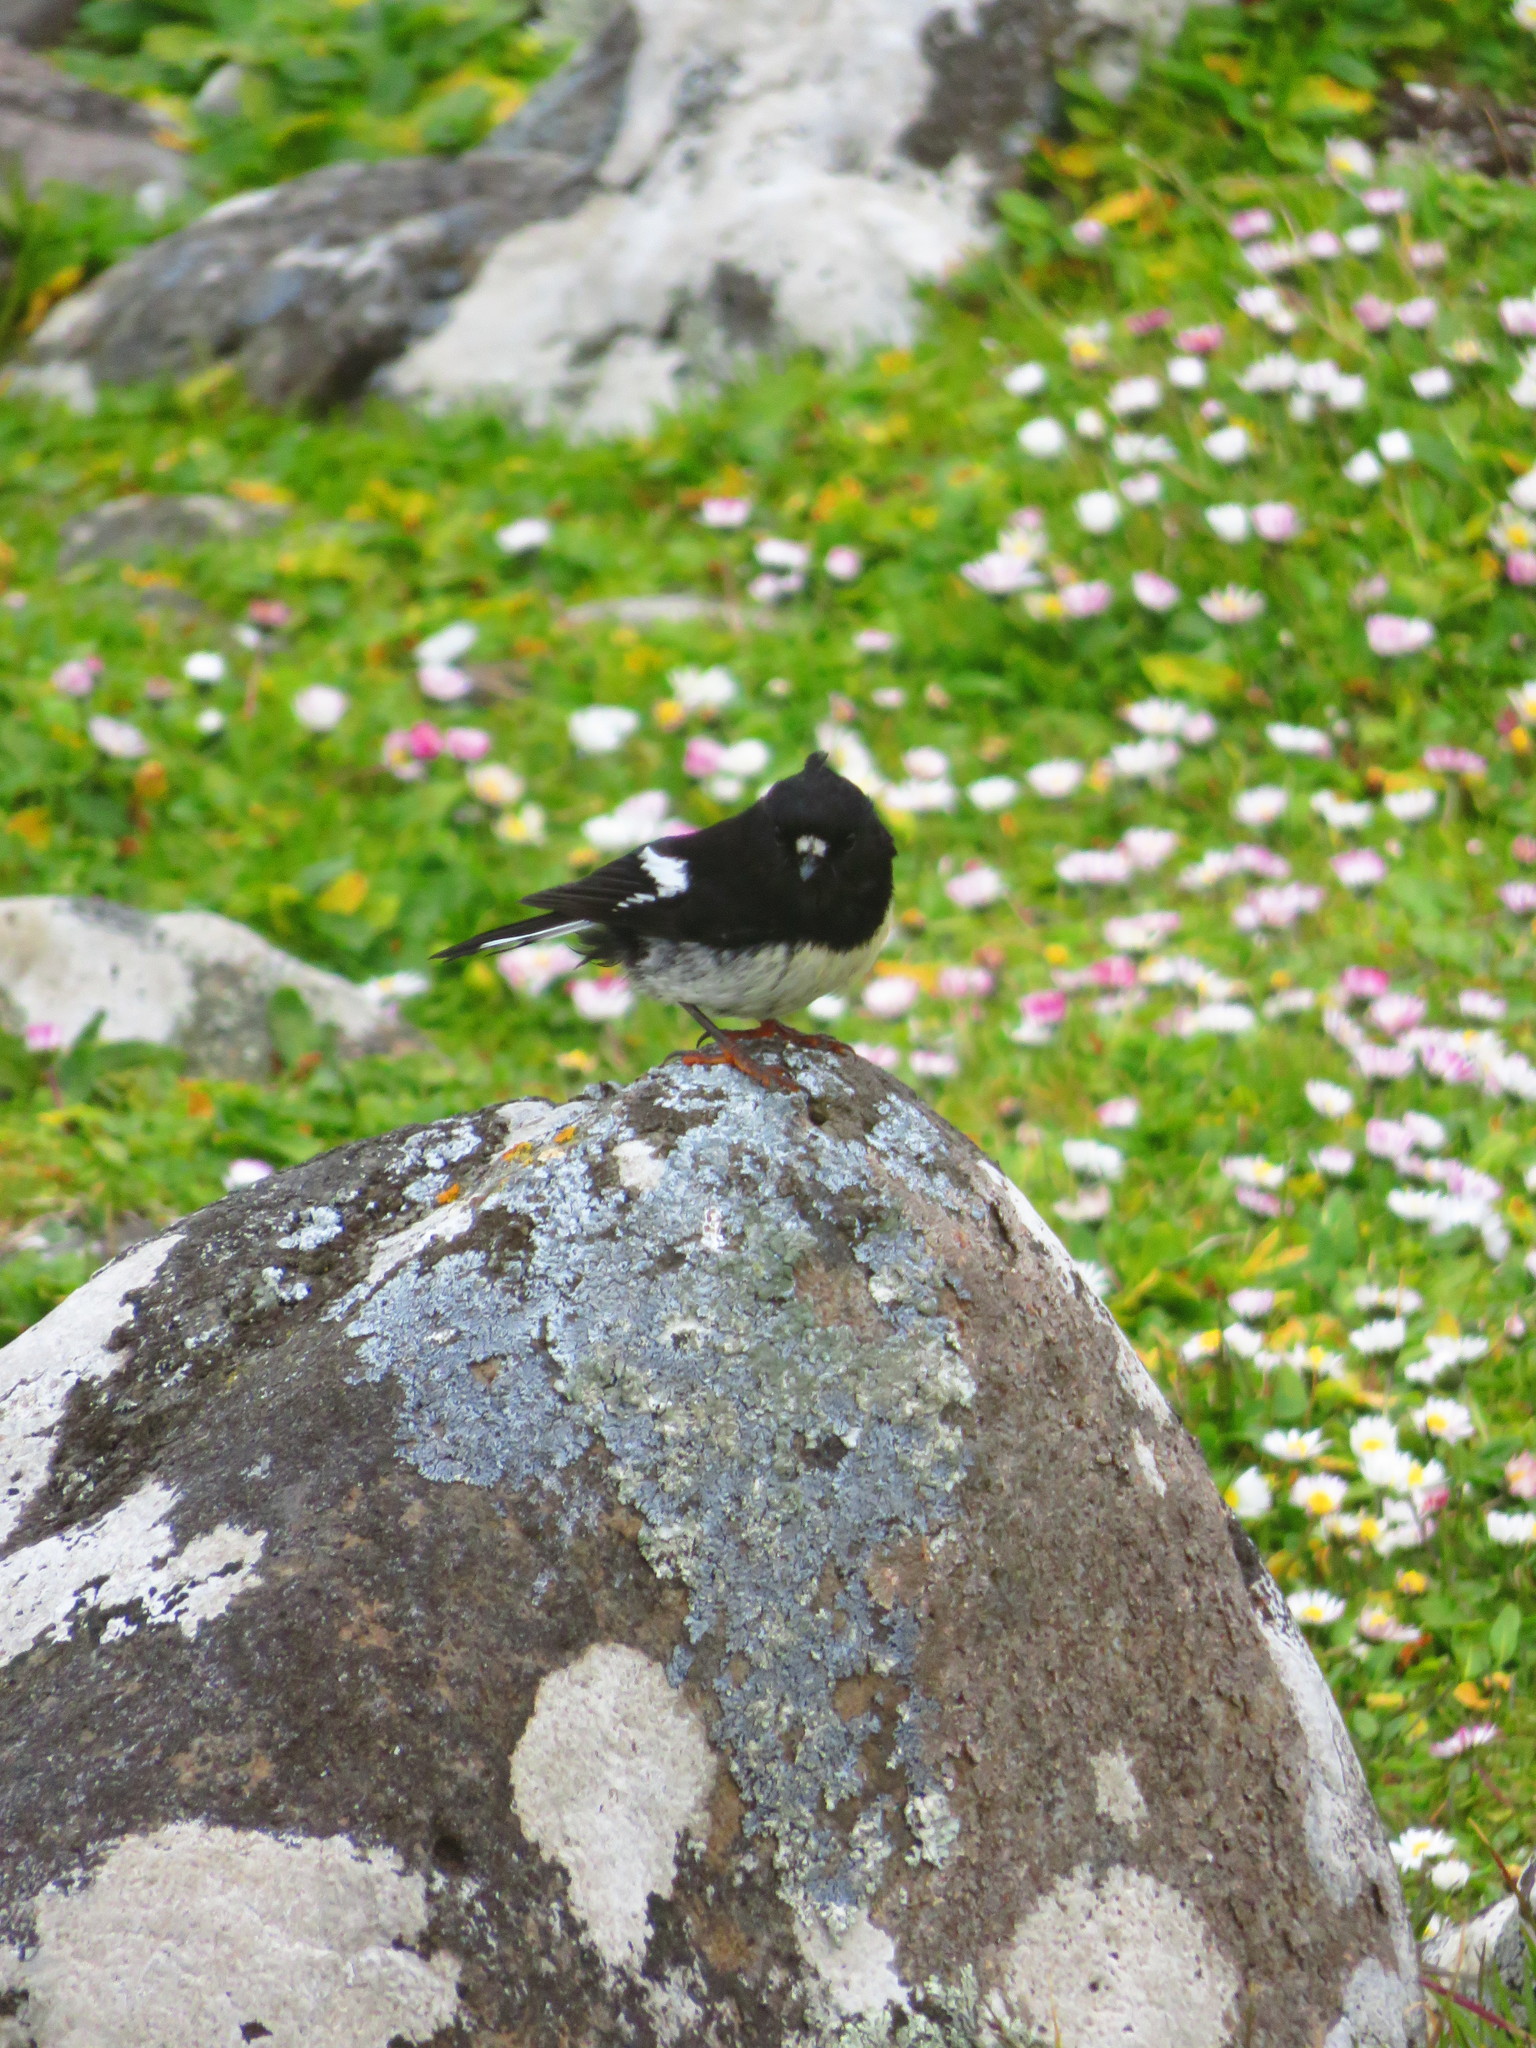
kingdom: Animalia
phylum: Chordata
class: Aves
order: Passeriformes
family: Petroicidae
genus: Petroica
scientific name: Petroica macrocephala
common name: Tomtit
